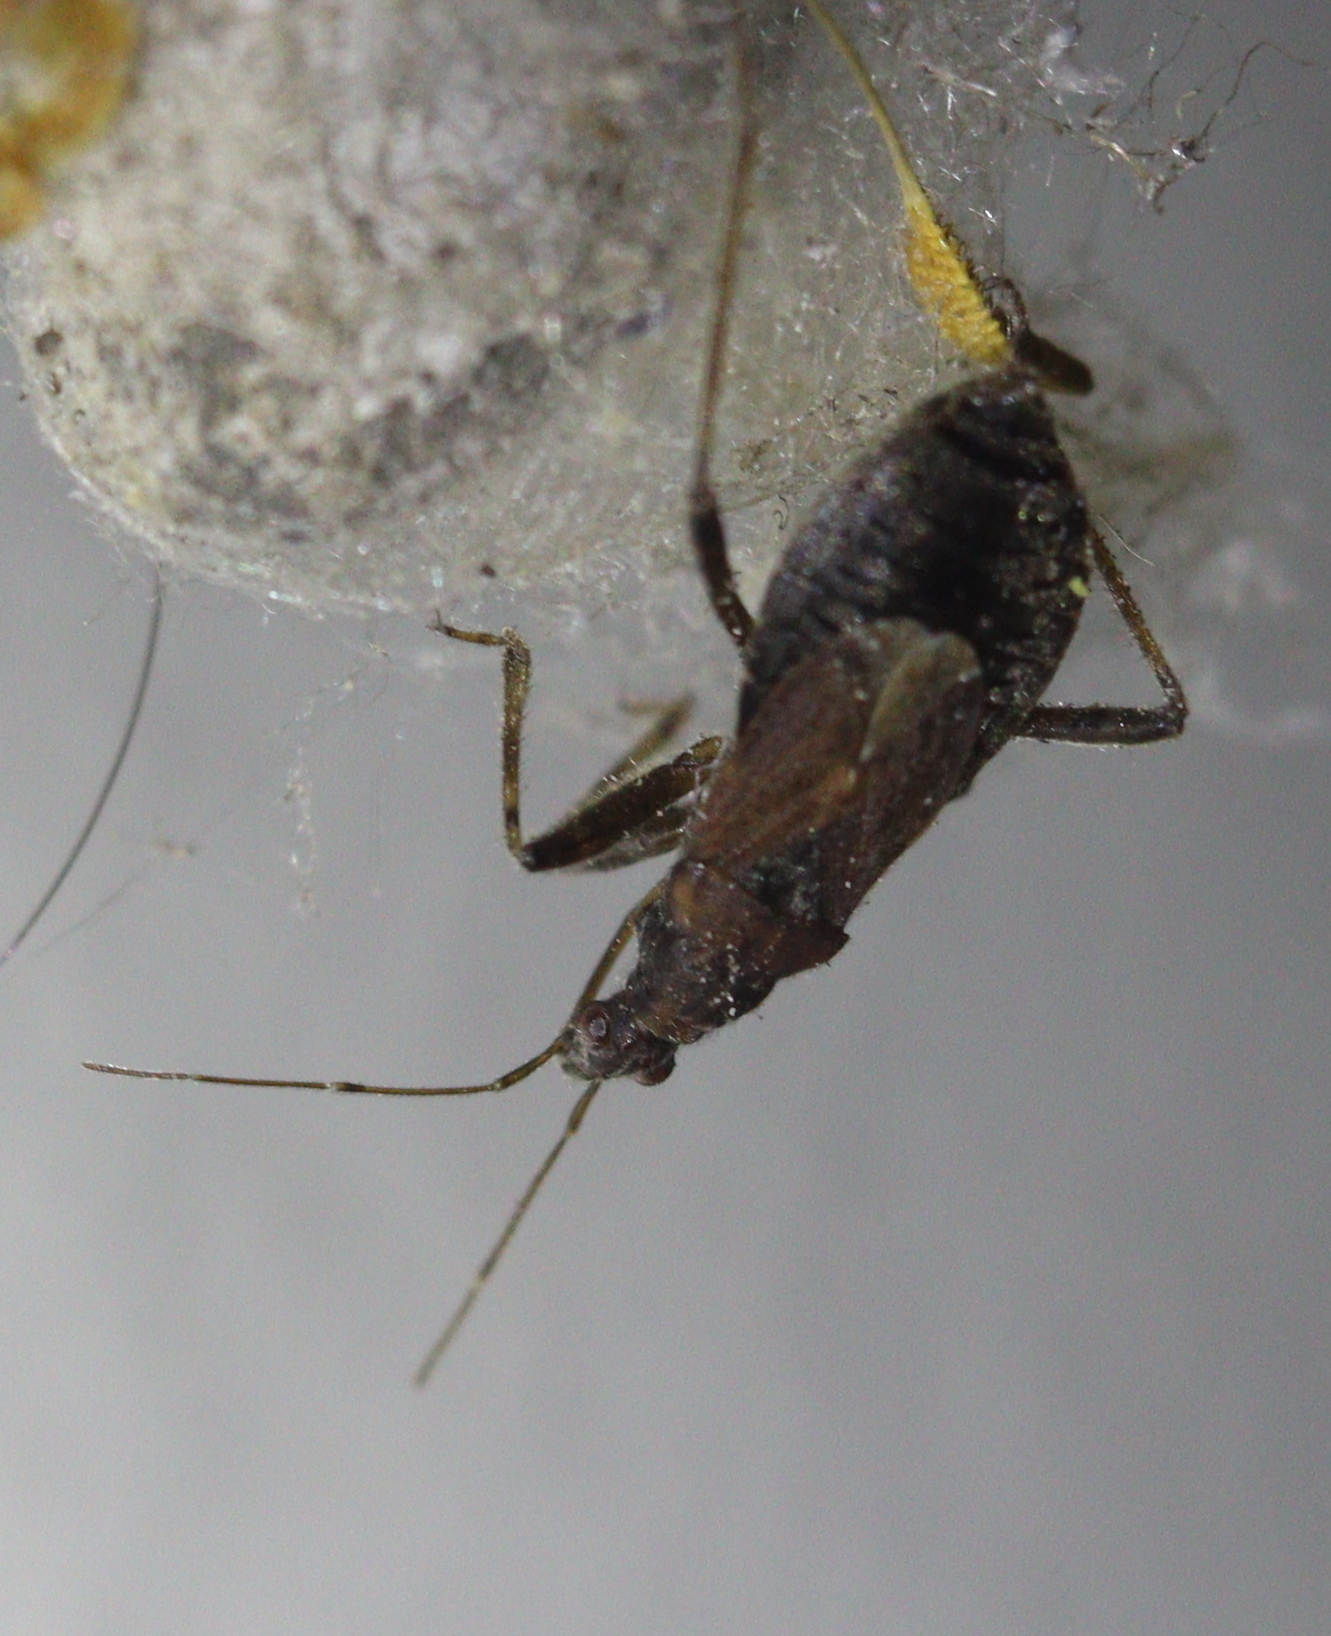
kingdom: Animalia
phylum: Arthropoda
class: Insecta
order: Hemiptera
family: Nabidae
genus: Himacerus
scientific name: Himacerus mirmicoides
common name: Ant damsel bug
